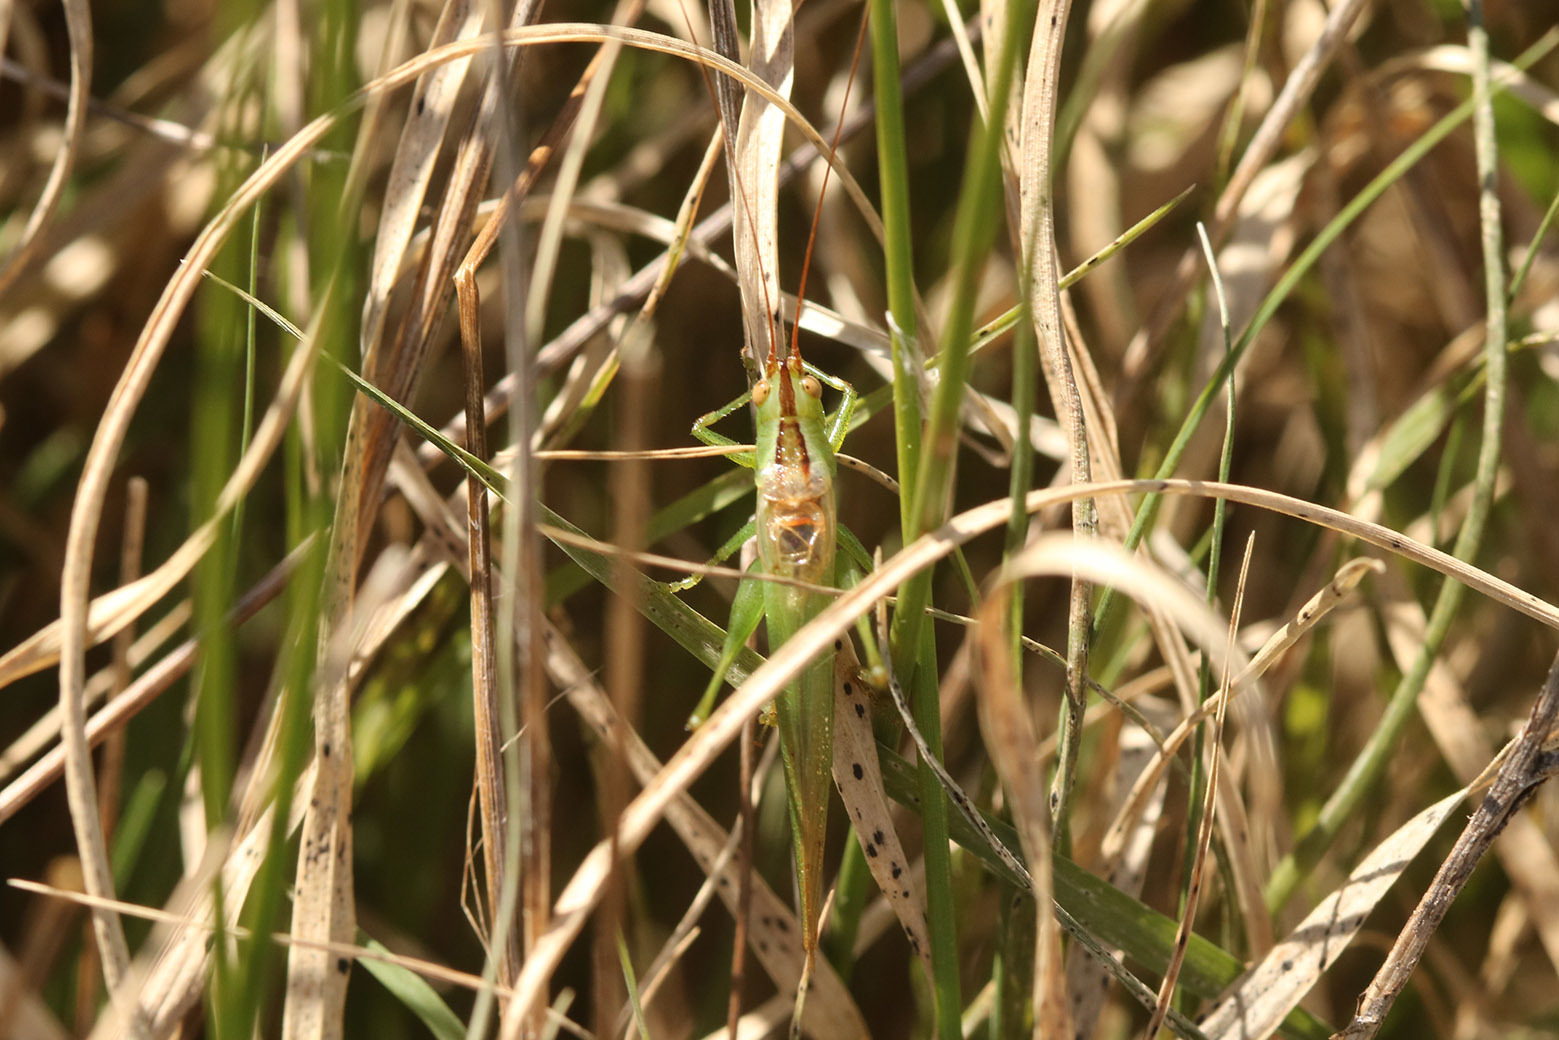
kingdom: Animalia
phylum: Arthropoda
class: Insecta
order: Orthoptera
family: Tettigoniidae
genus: Conocephalus
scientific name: Conocephalus longipes
